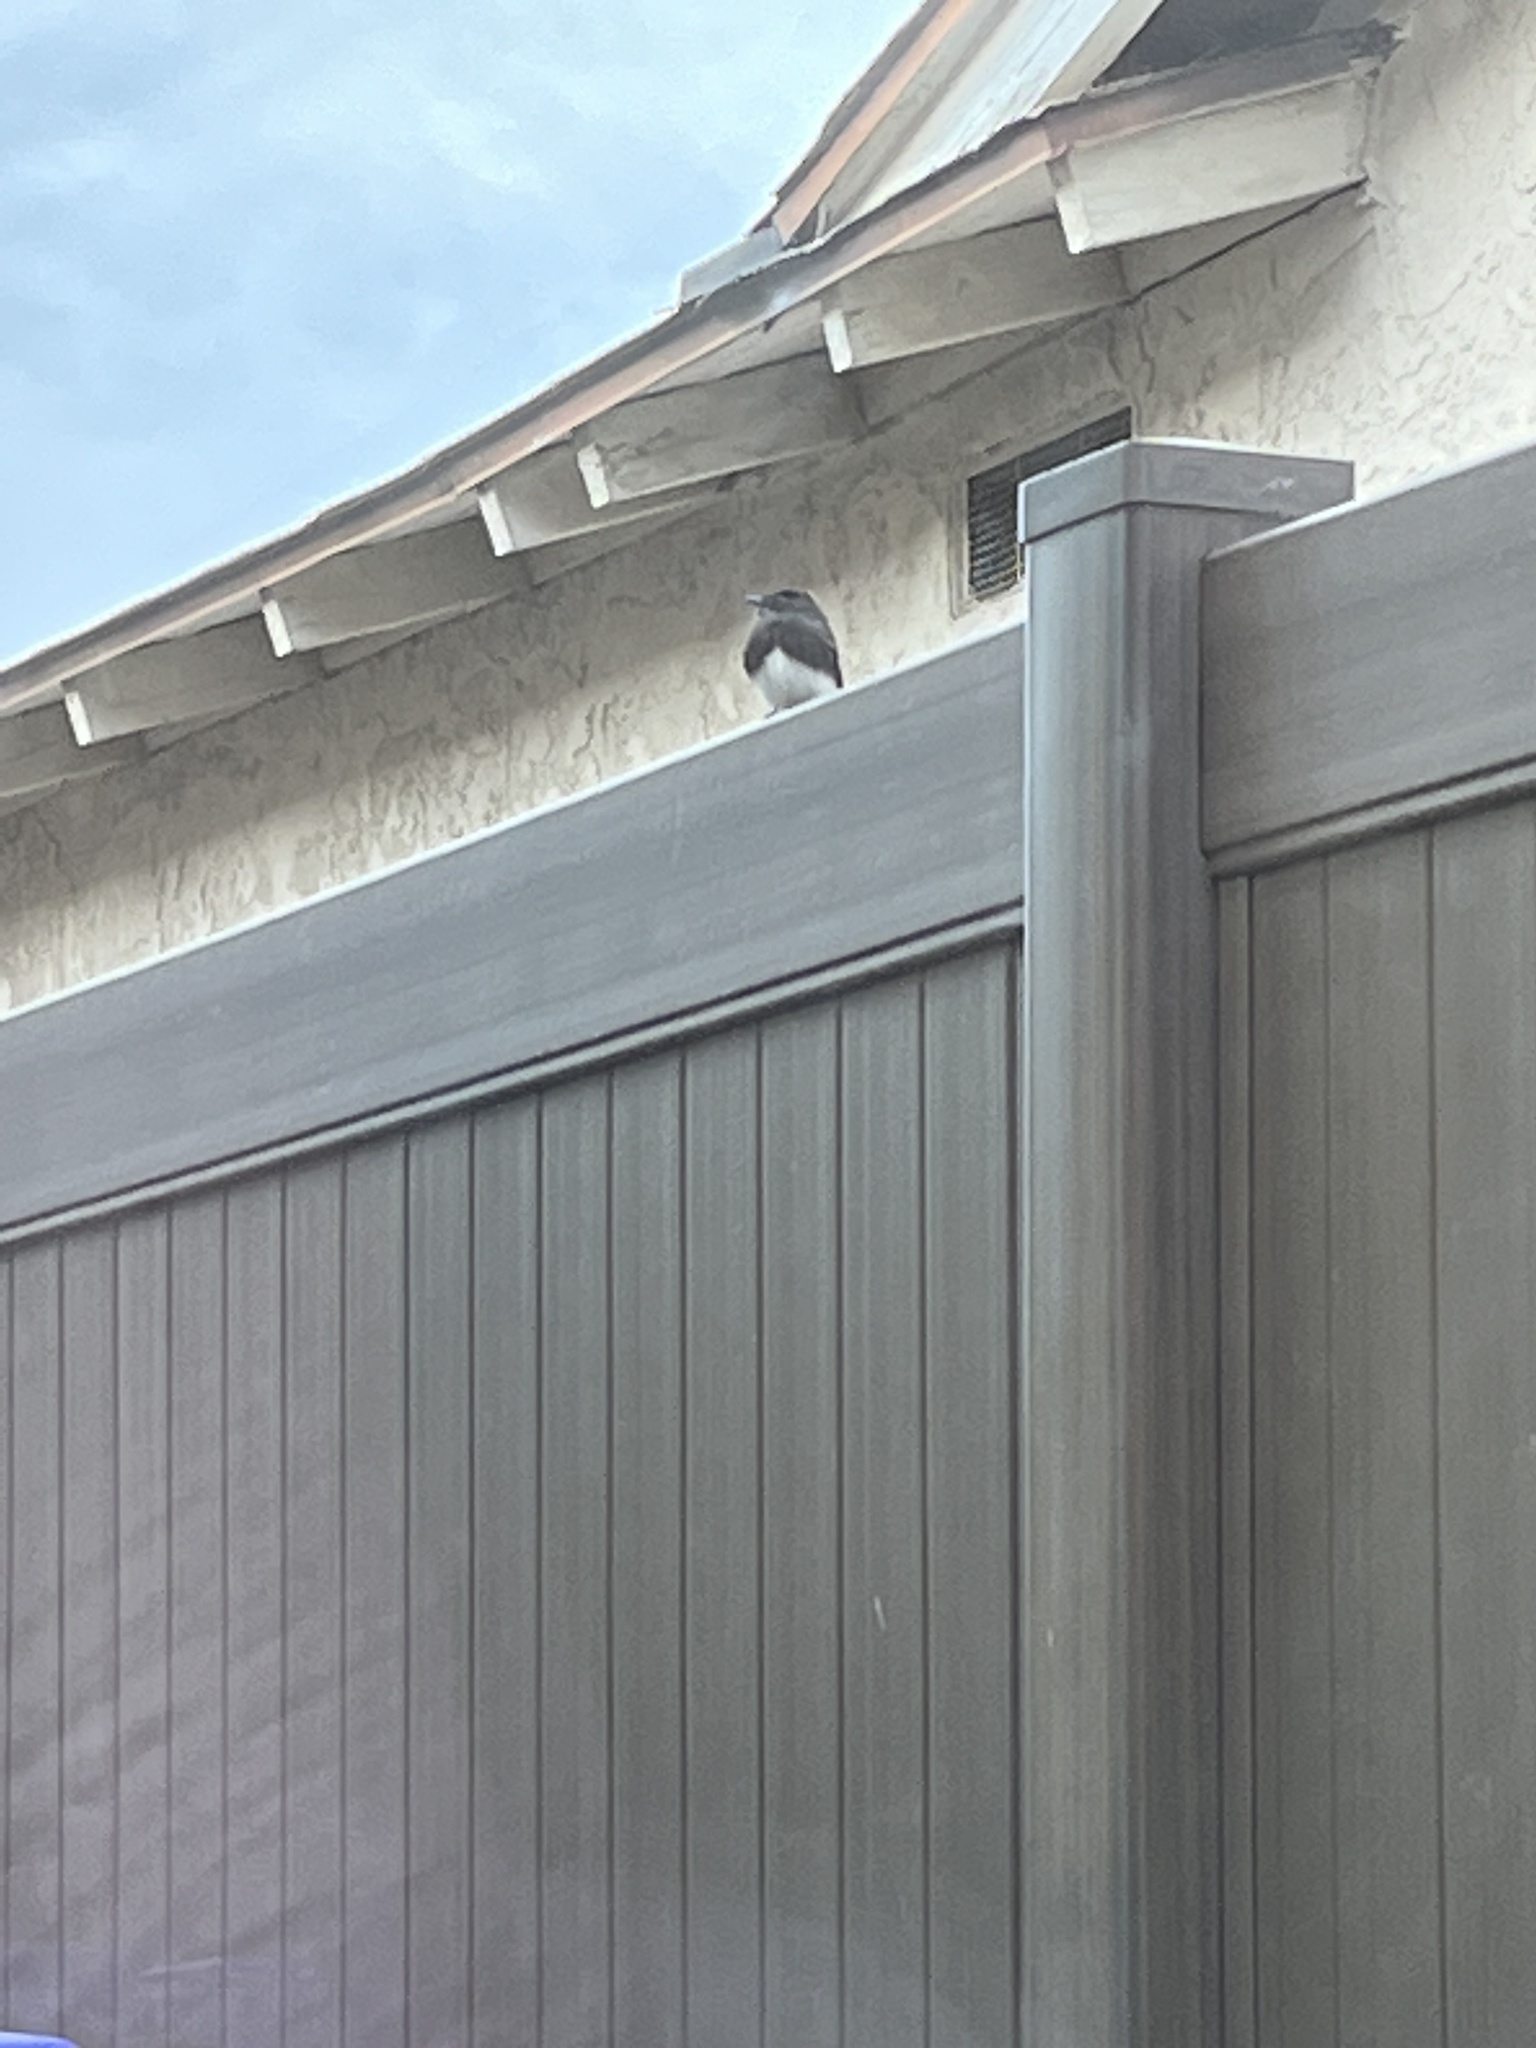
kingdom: Animalia
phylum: Chordata
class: Aves
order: Passeriformes
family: Tyrannidae
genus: Sayornis
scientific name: Sayornis nigricans
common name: Black phoebe
